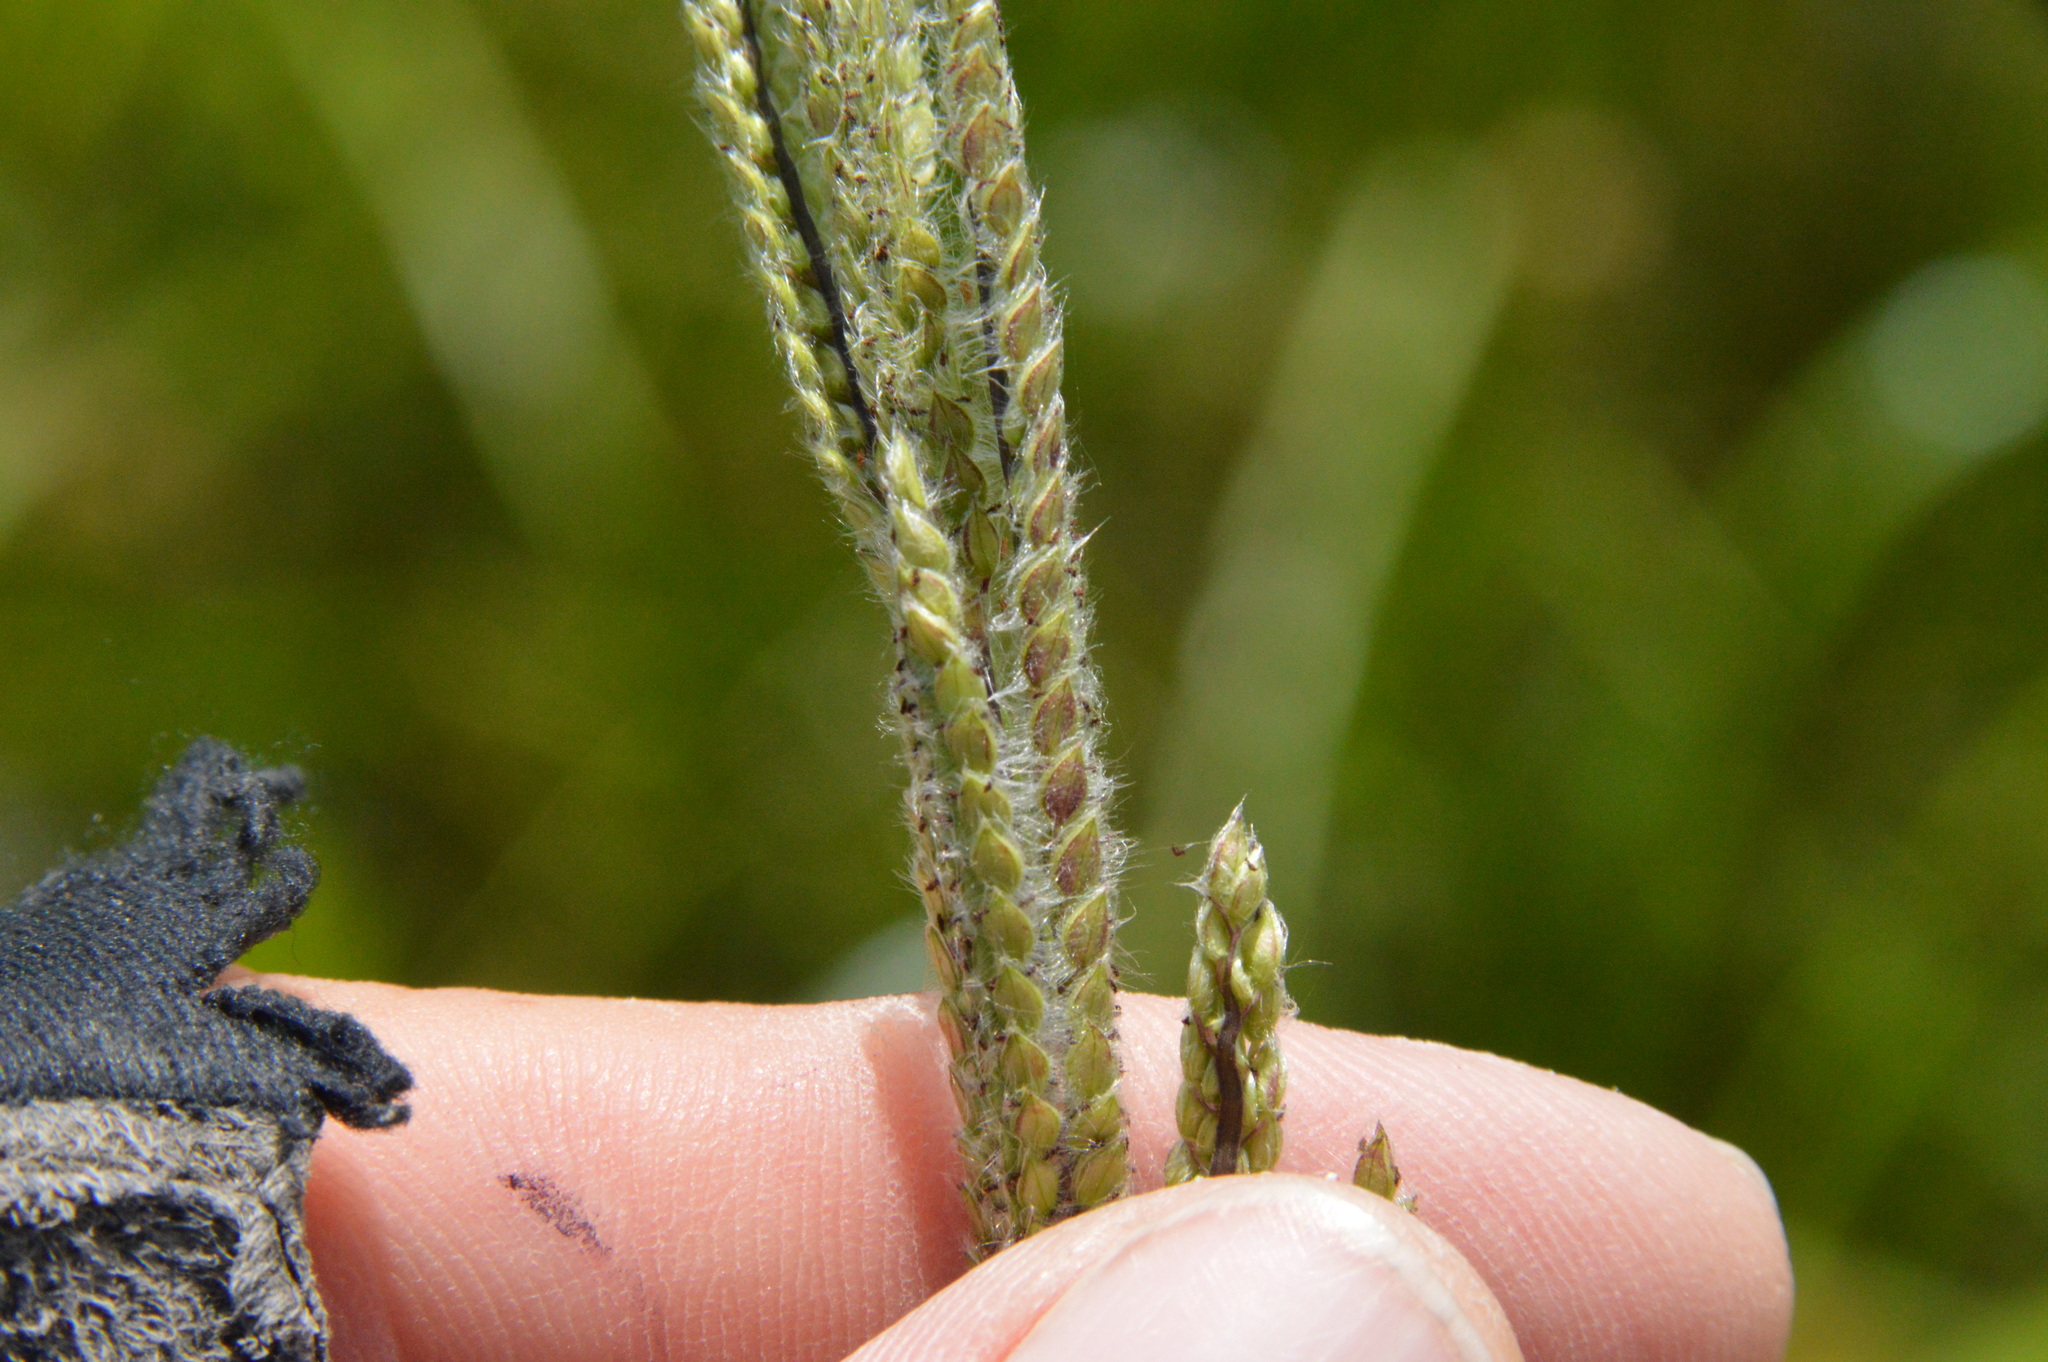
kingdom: Plantae
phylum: Tracheophyta
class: Liliopsida
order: Poales
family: Poaceae
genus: Paspalum
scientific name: Paspalum urvillei
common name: Vasey's grass
